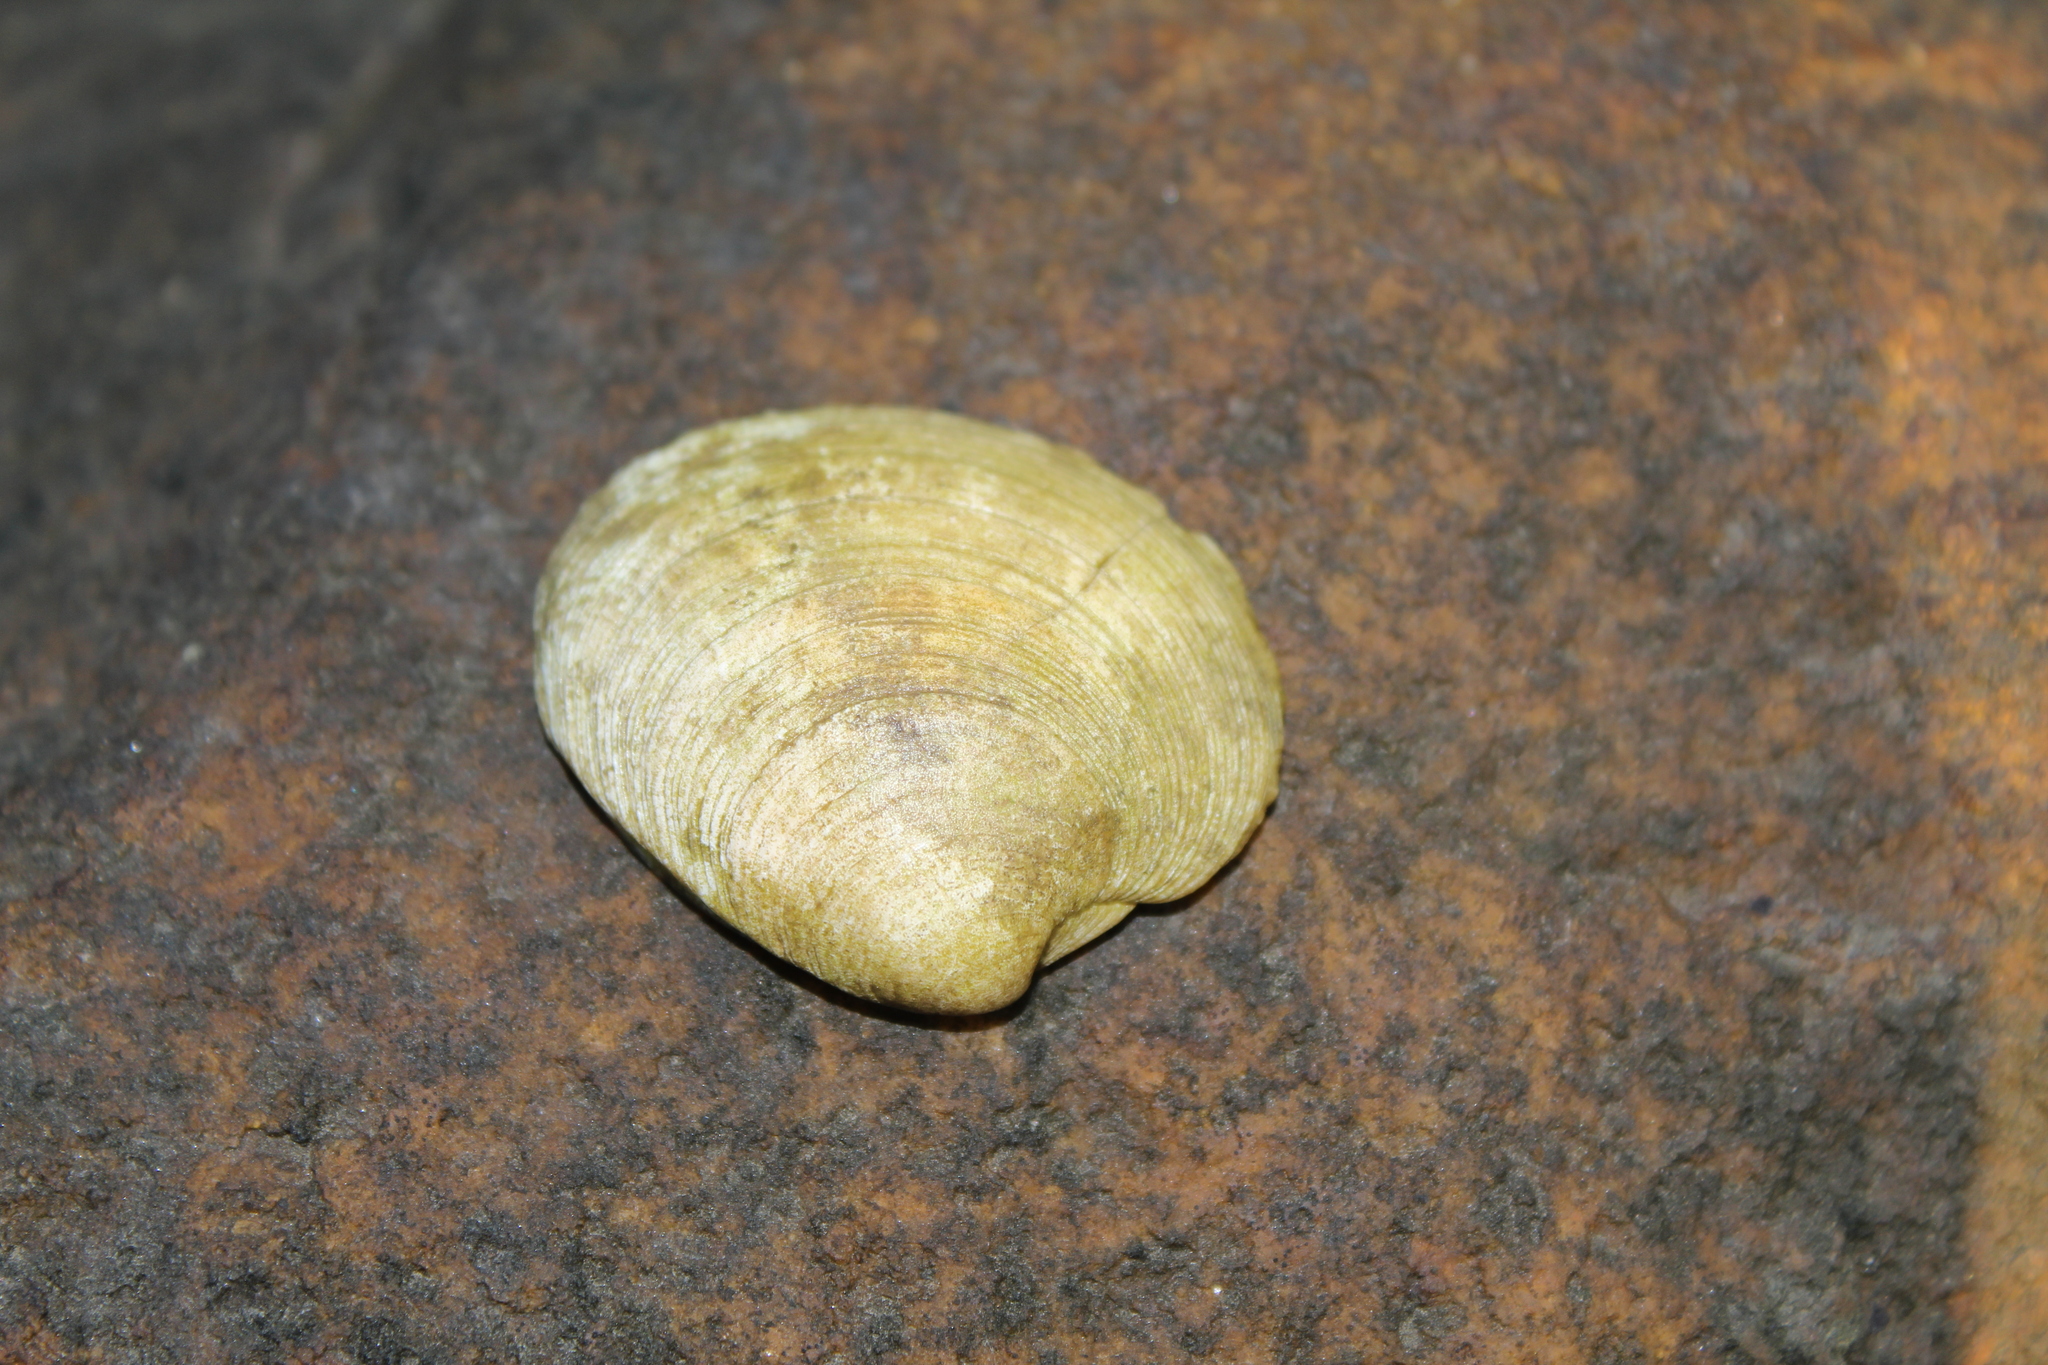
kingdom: Animalia
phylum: Mollusca
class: Bivalvia
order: Venerida
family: Veneridae
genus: Mercenaria
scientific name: Mercenaria mercenaria
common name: American hard-shelled clam
